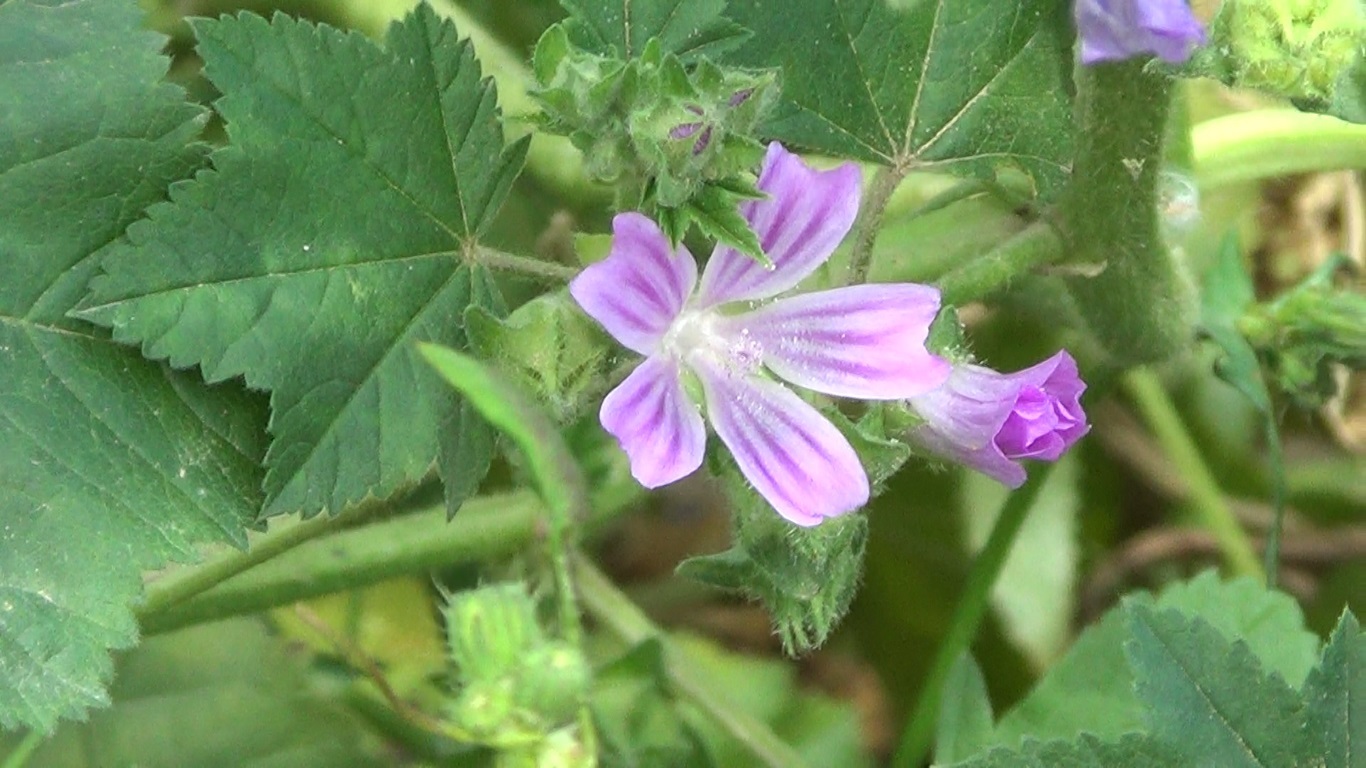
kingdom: Plantae
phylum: Tracheophyta
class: Magnoliopsida
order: Malvales
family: Malvaceae
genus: Malva
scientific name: Malva multiflora
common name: Cheeseweed
